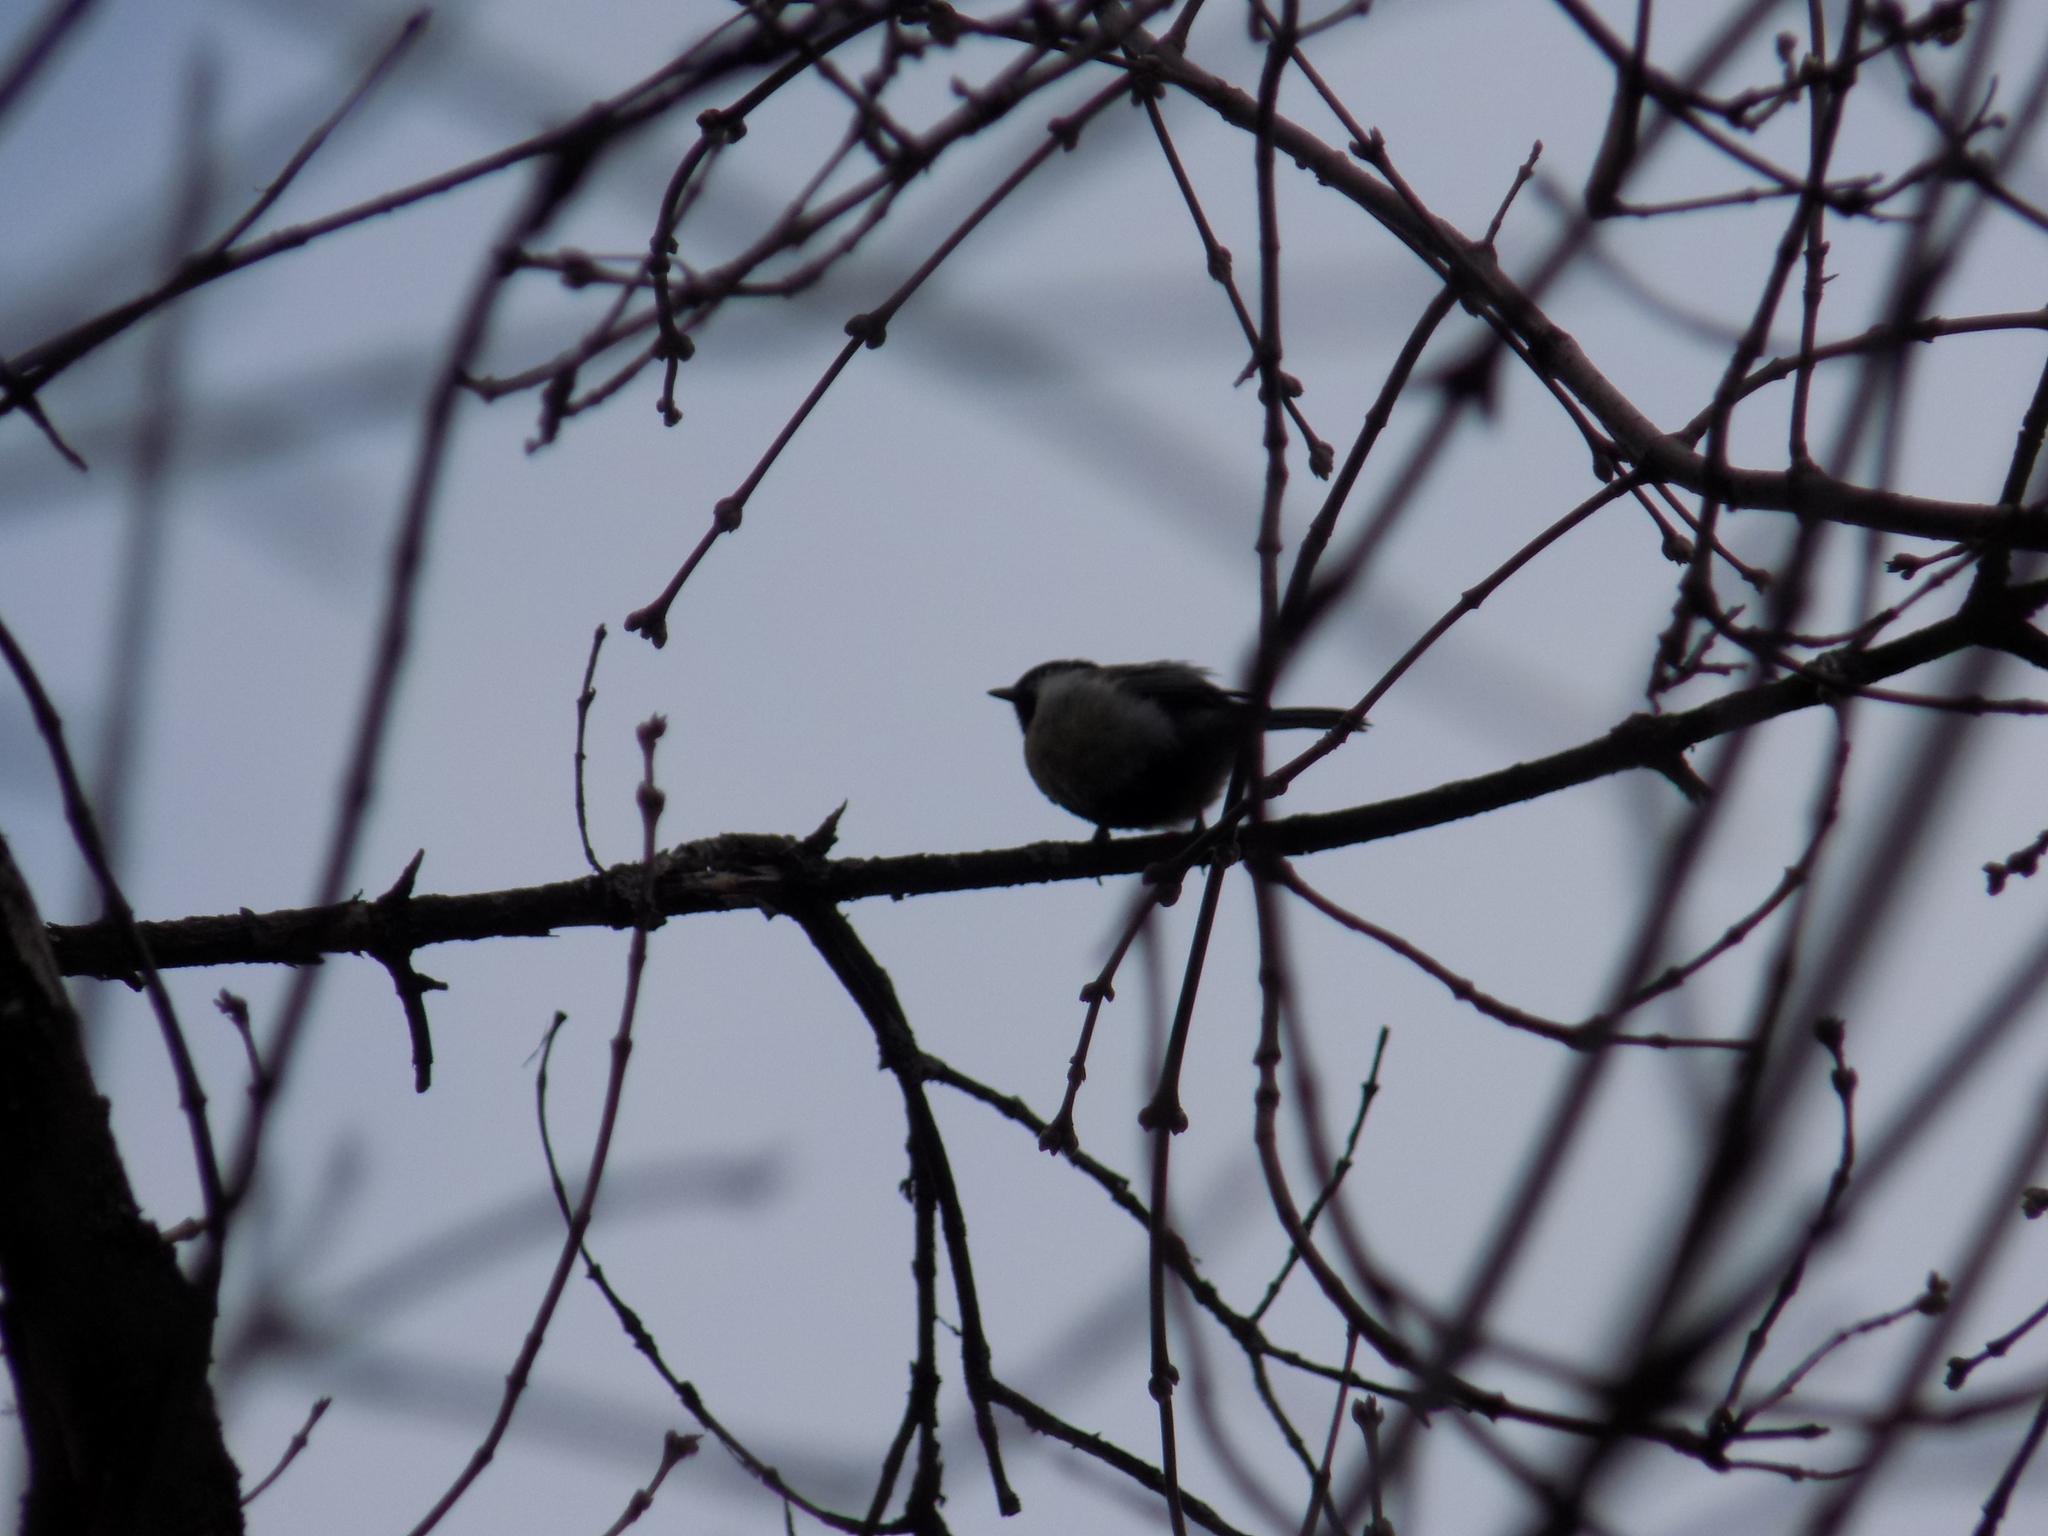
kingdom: Animalia
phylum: Chordata
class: Aves
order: Passeriformes
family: Paridae
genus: Parus
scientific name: Parus major
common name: Great tit
